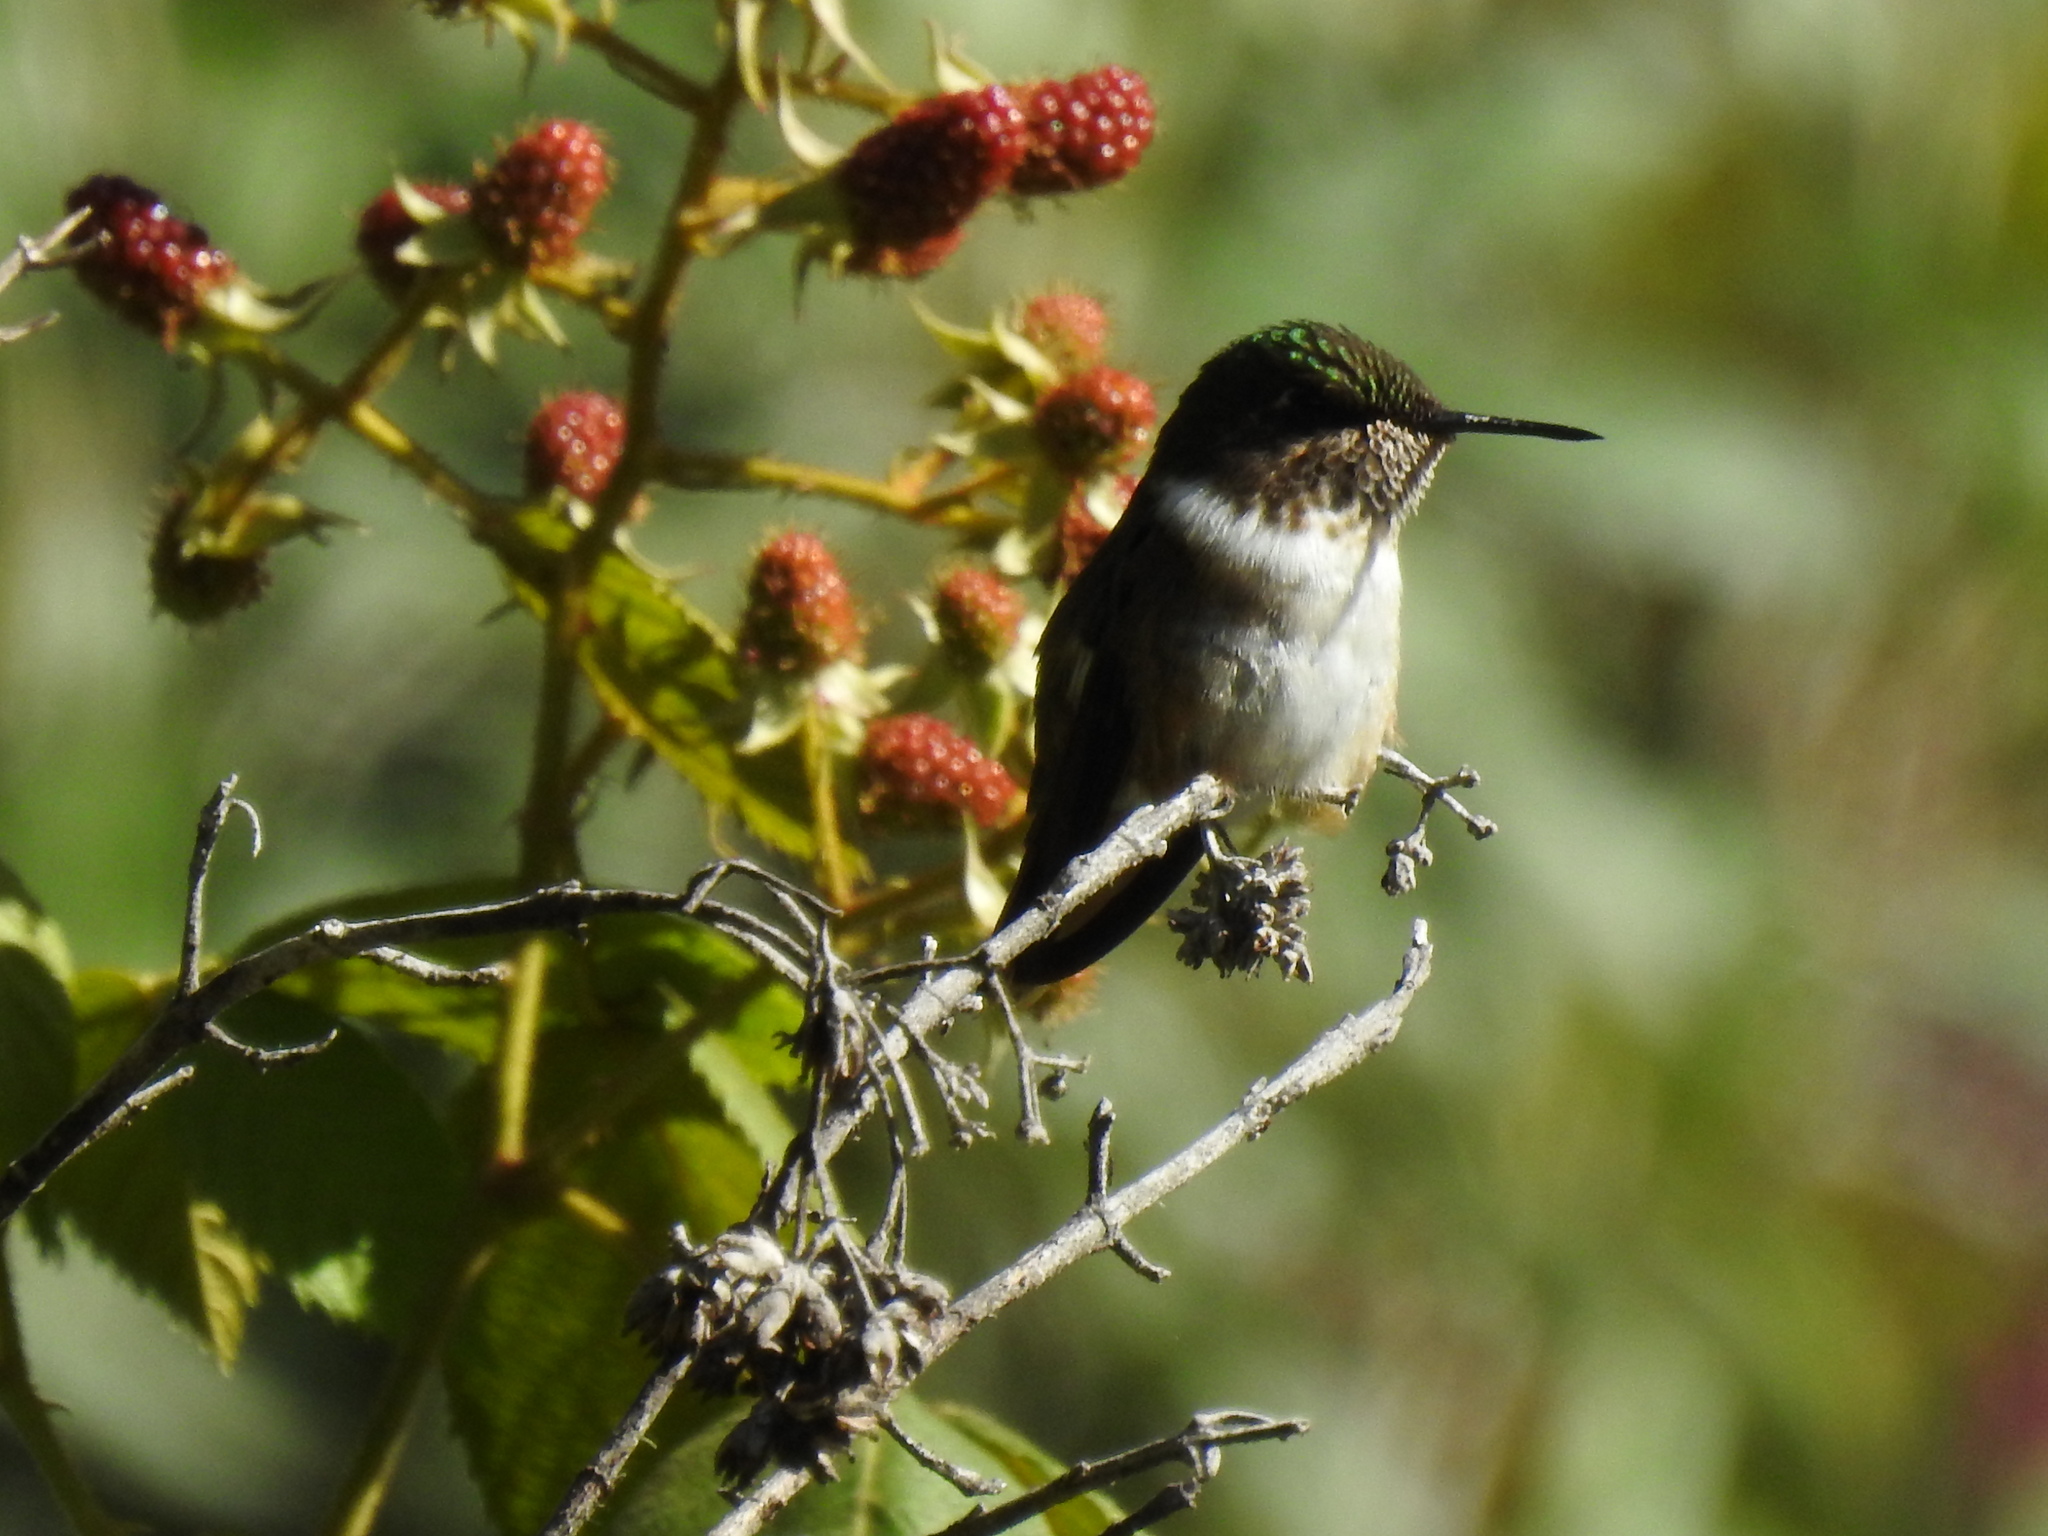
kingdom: Animalia
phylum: Chordata
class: Aves
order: Apodiformes
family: Trochilidae
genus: Selasphorus
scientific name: Selasphorus flammula
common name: Volcano hummingbird
